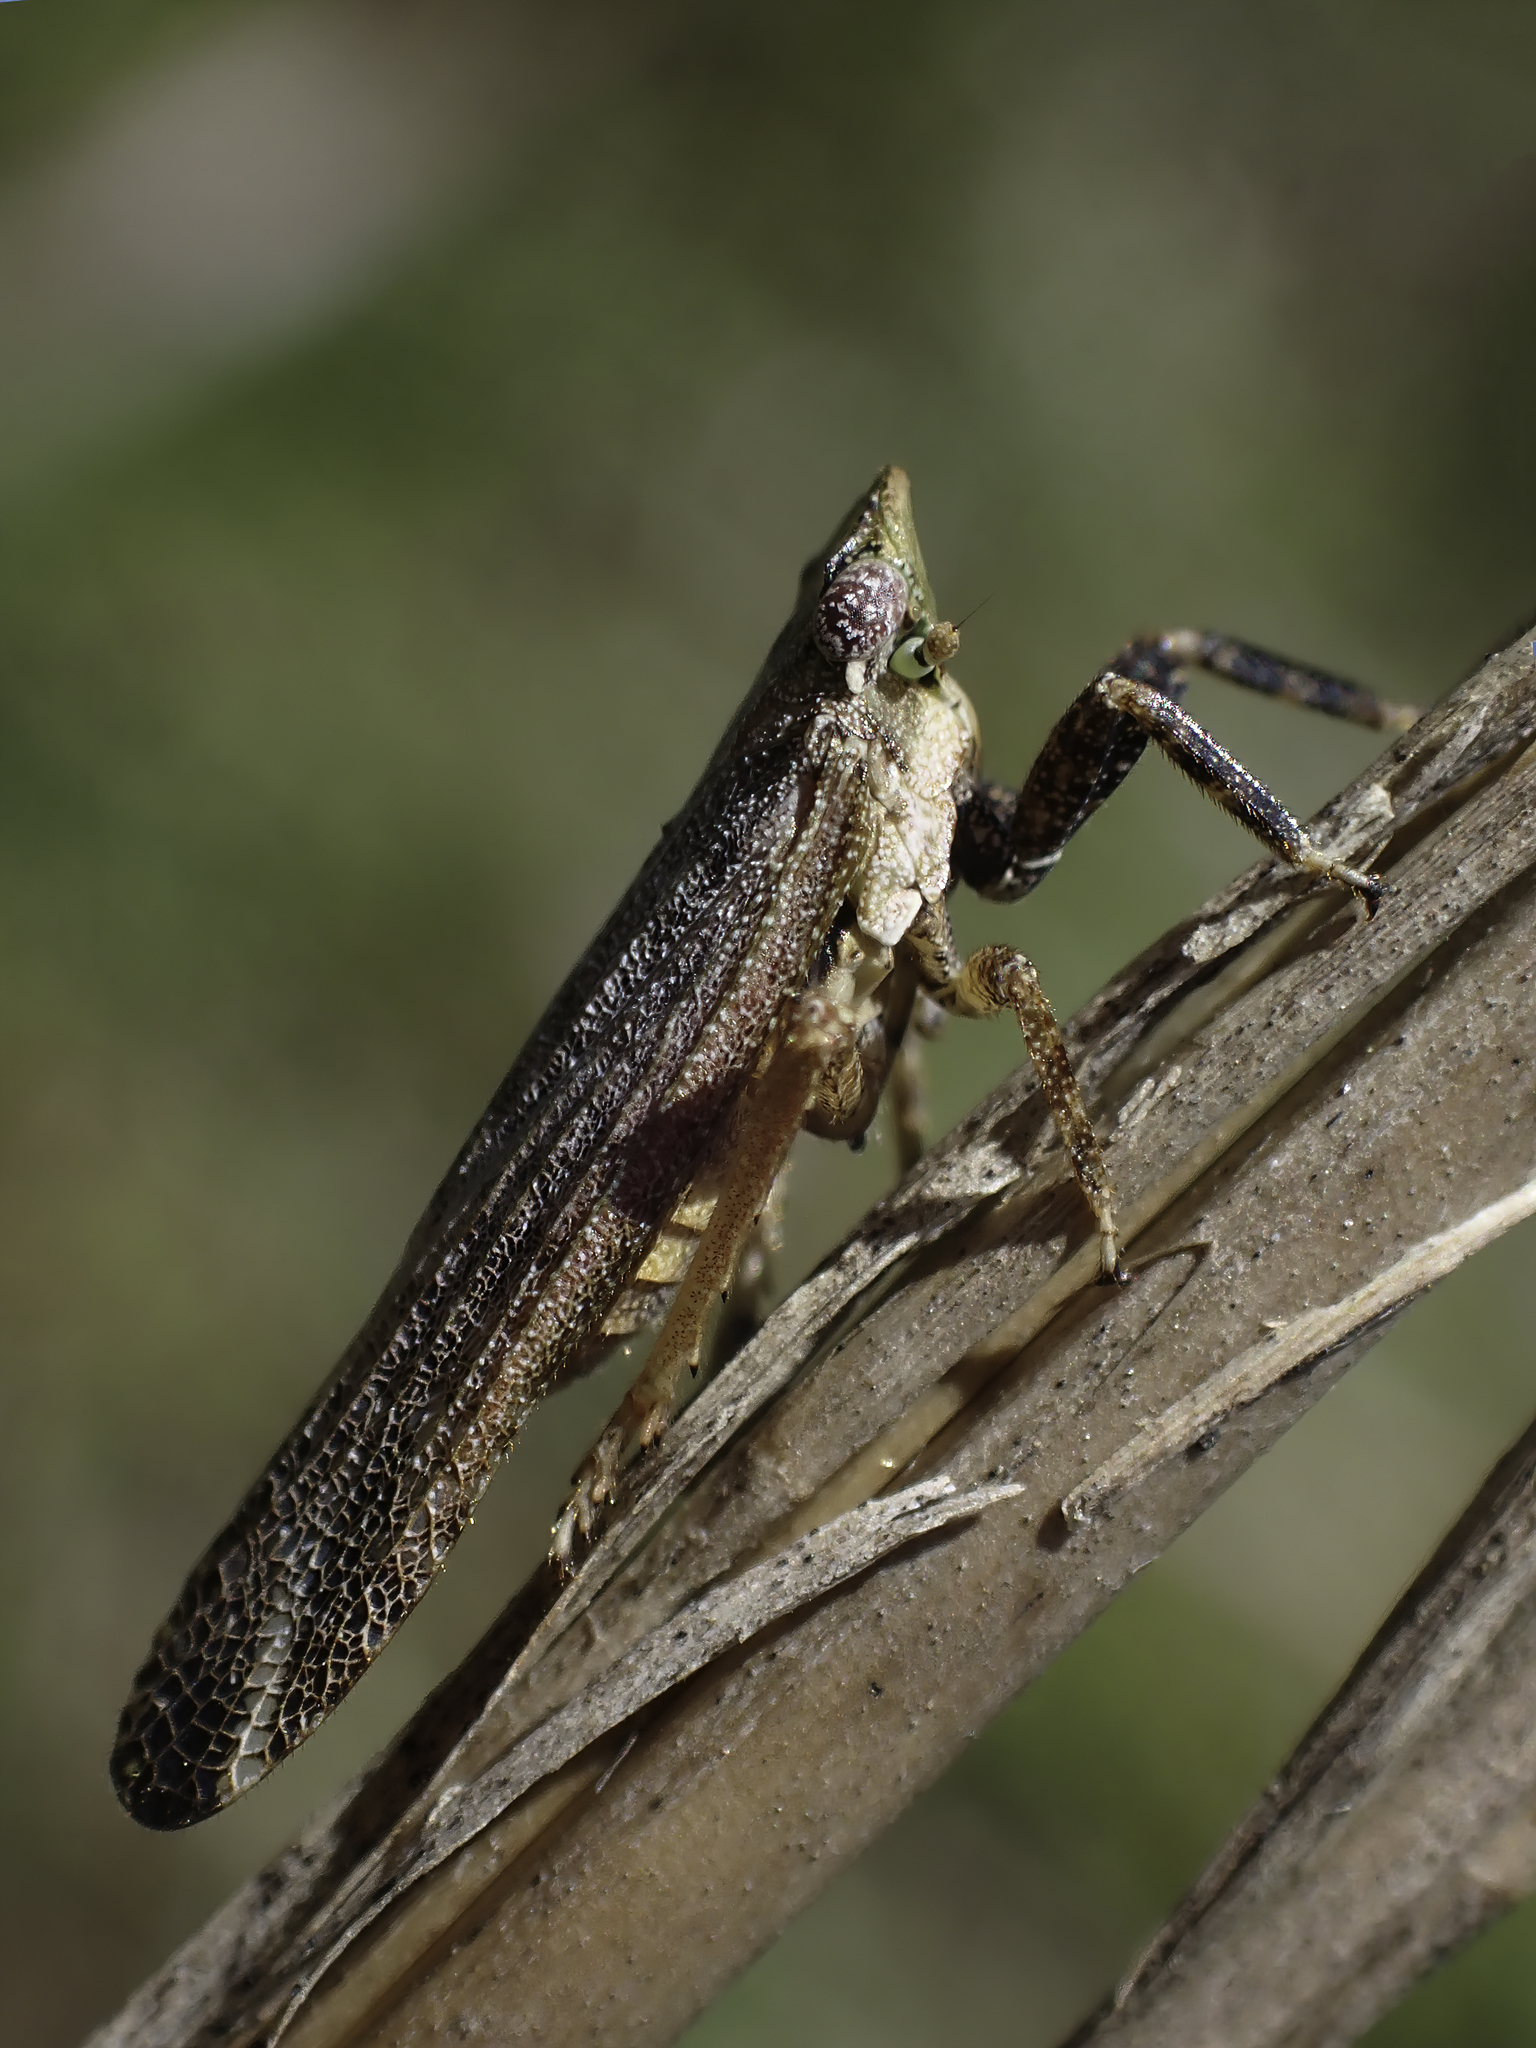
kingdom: Animalia
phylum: Arthropoda
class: Insecta
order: Hemiptera
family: Fulgoridae
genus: Cyrpoptus
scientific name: Cyrpoptus reineckei
